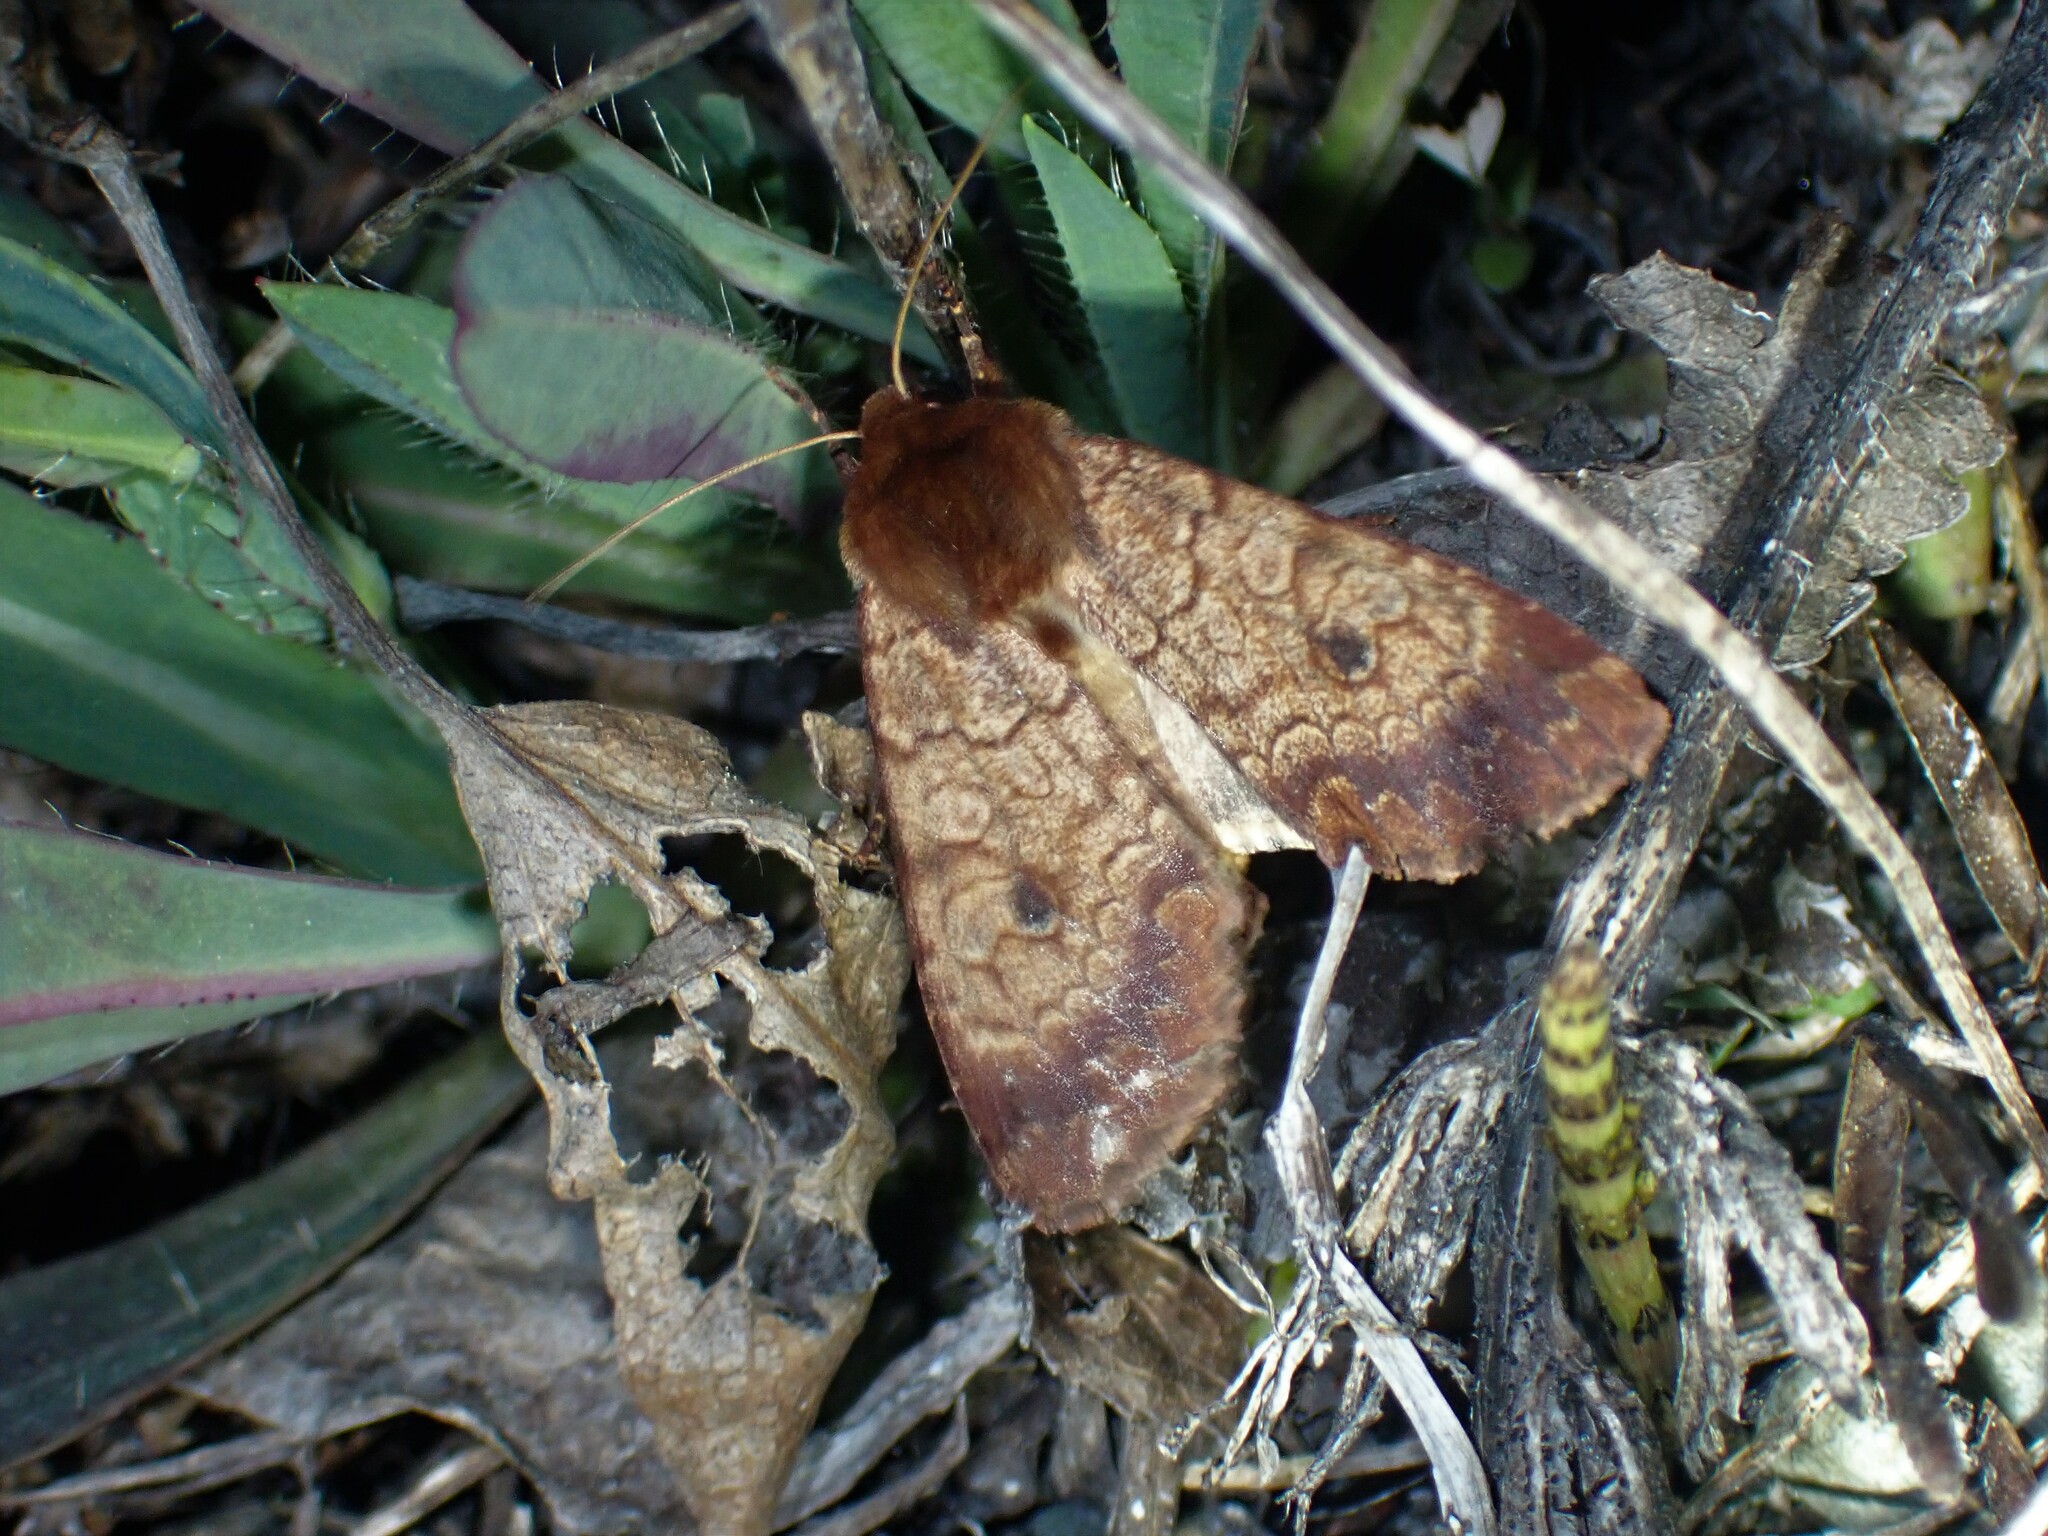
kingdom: Animalia
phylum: Arthropoda
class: Insecta
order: Lepidoptera
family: Noctuidae
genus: Sideridis
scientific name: Sideridis rosea
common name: Rosewing moth
